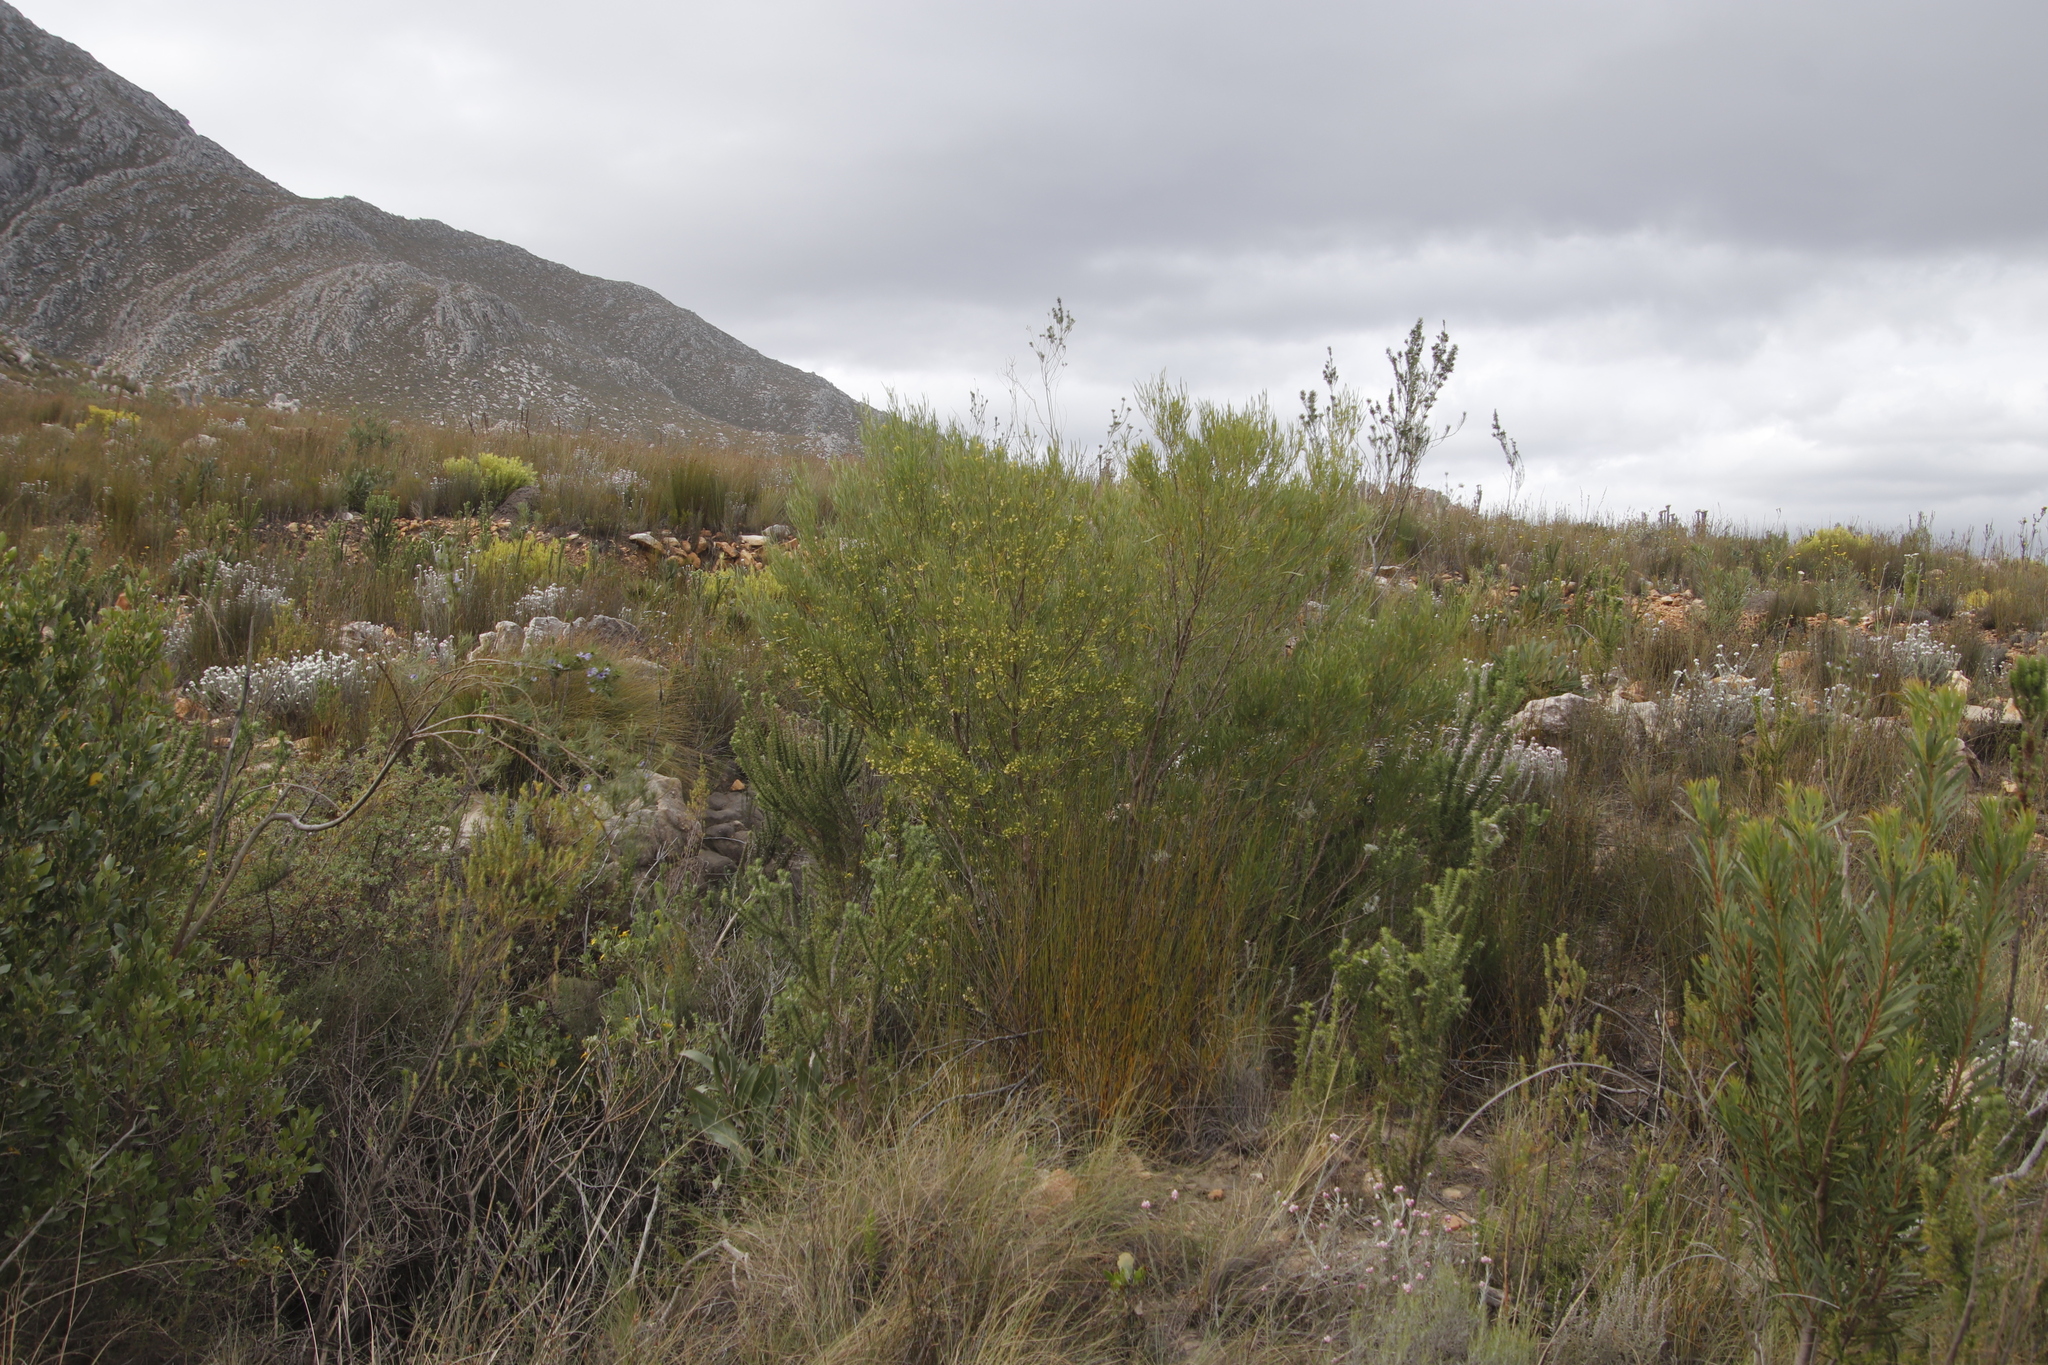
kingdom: Plantae
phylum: Tracheophyta
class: Magnoliopsida
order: Sapindales
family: Sapindaceae
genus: Dodonaea
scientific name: Dodonaea viscosa
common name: Hopbush
